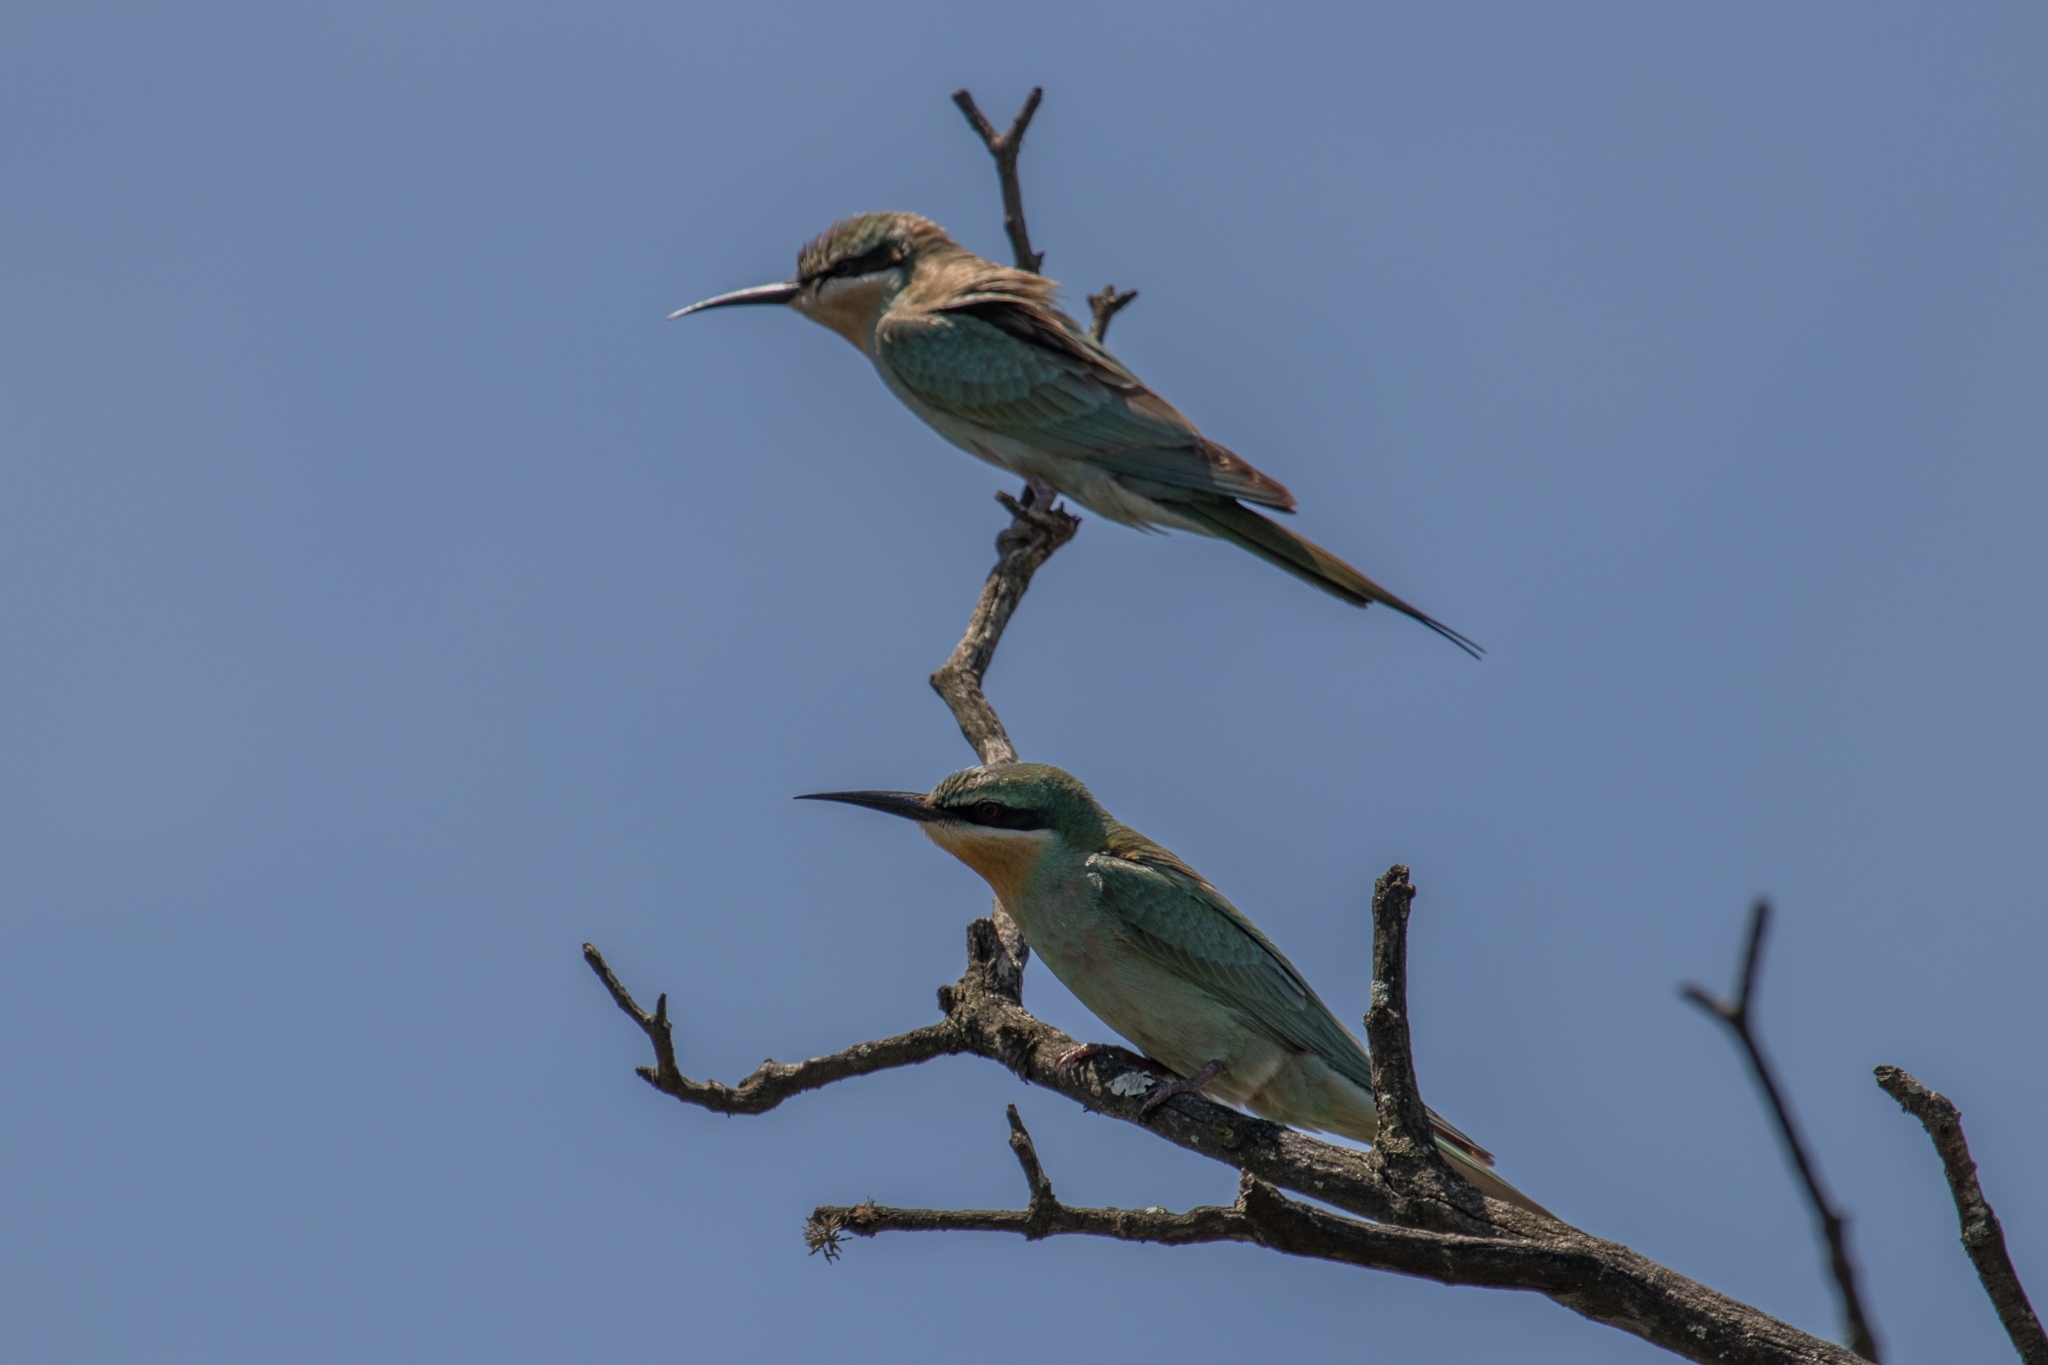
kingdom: Animalia
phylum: Chordata
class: Aves
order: Coraciiformes
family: Meropidae
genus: Merops
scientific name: Merops persicus
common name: Blue-cheeked bee-eater
